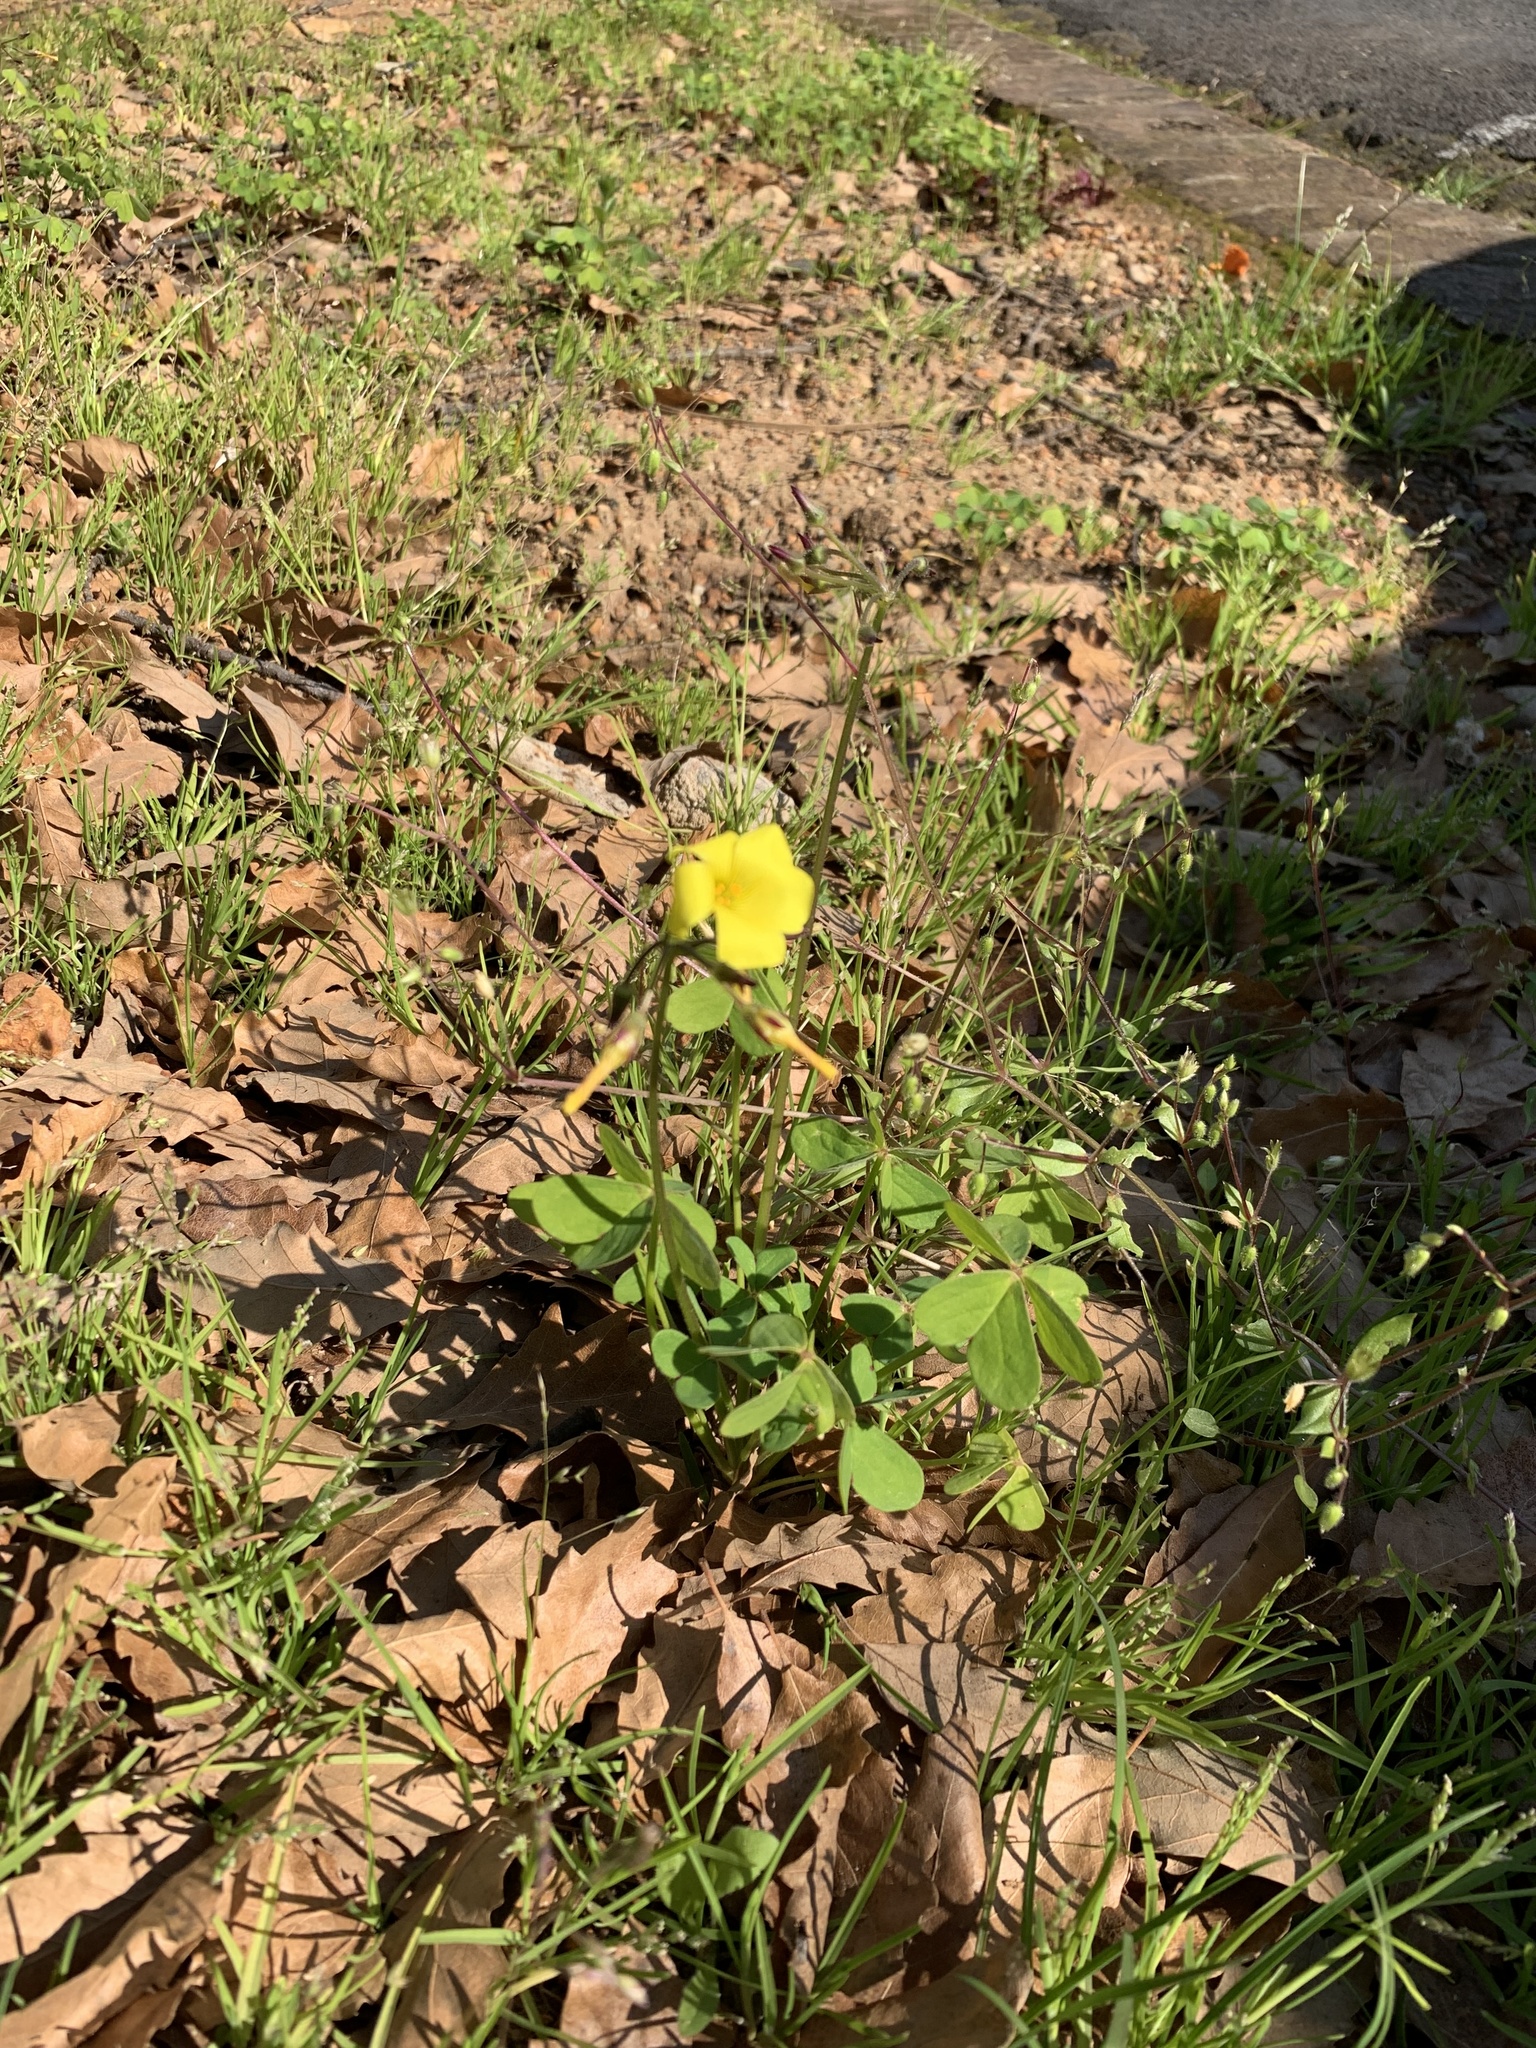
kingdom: Plantae
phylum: Tracheophyta
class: Magnoliopsida
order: Oxalidales
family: Oxalidaceae
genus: Oxalis
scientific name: Oxalis pes-caprae
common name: Bermuda-buttercup
